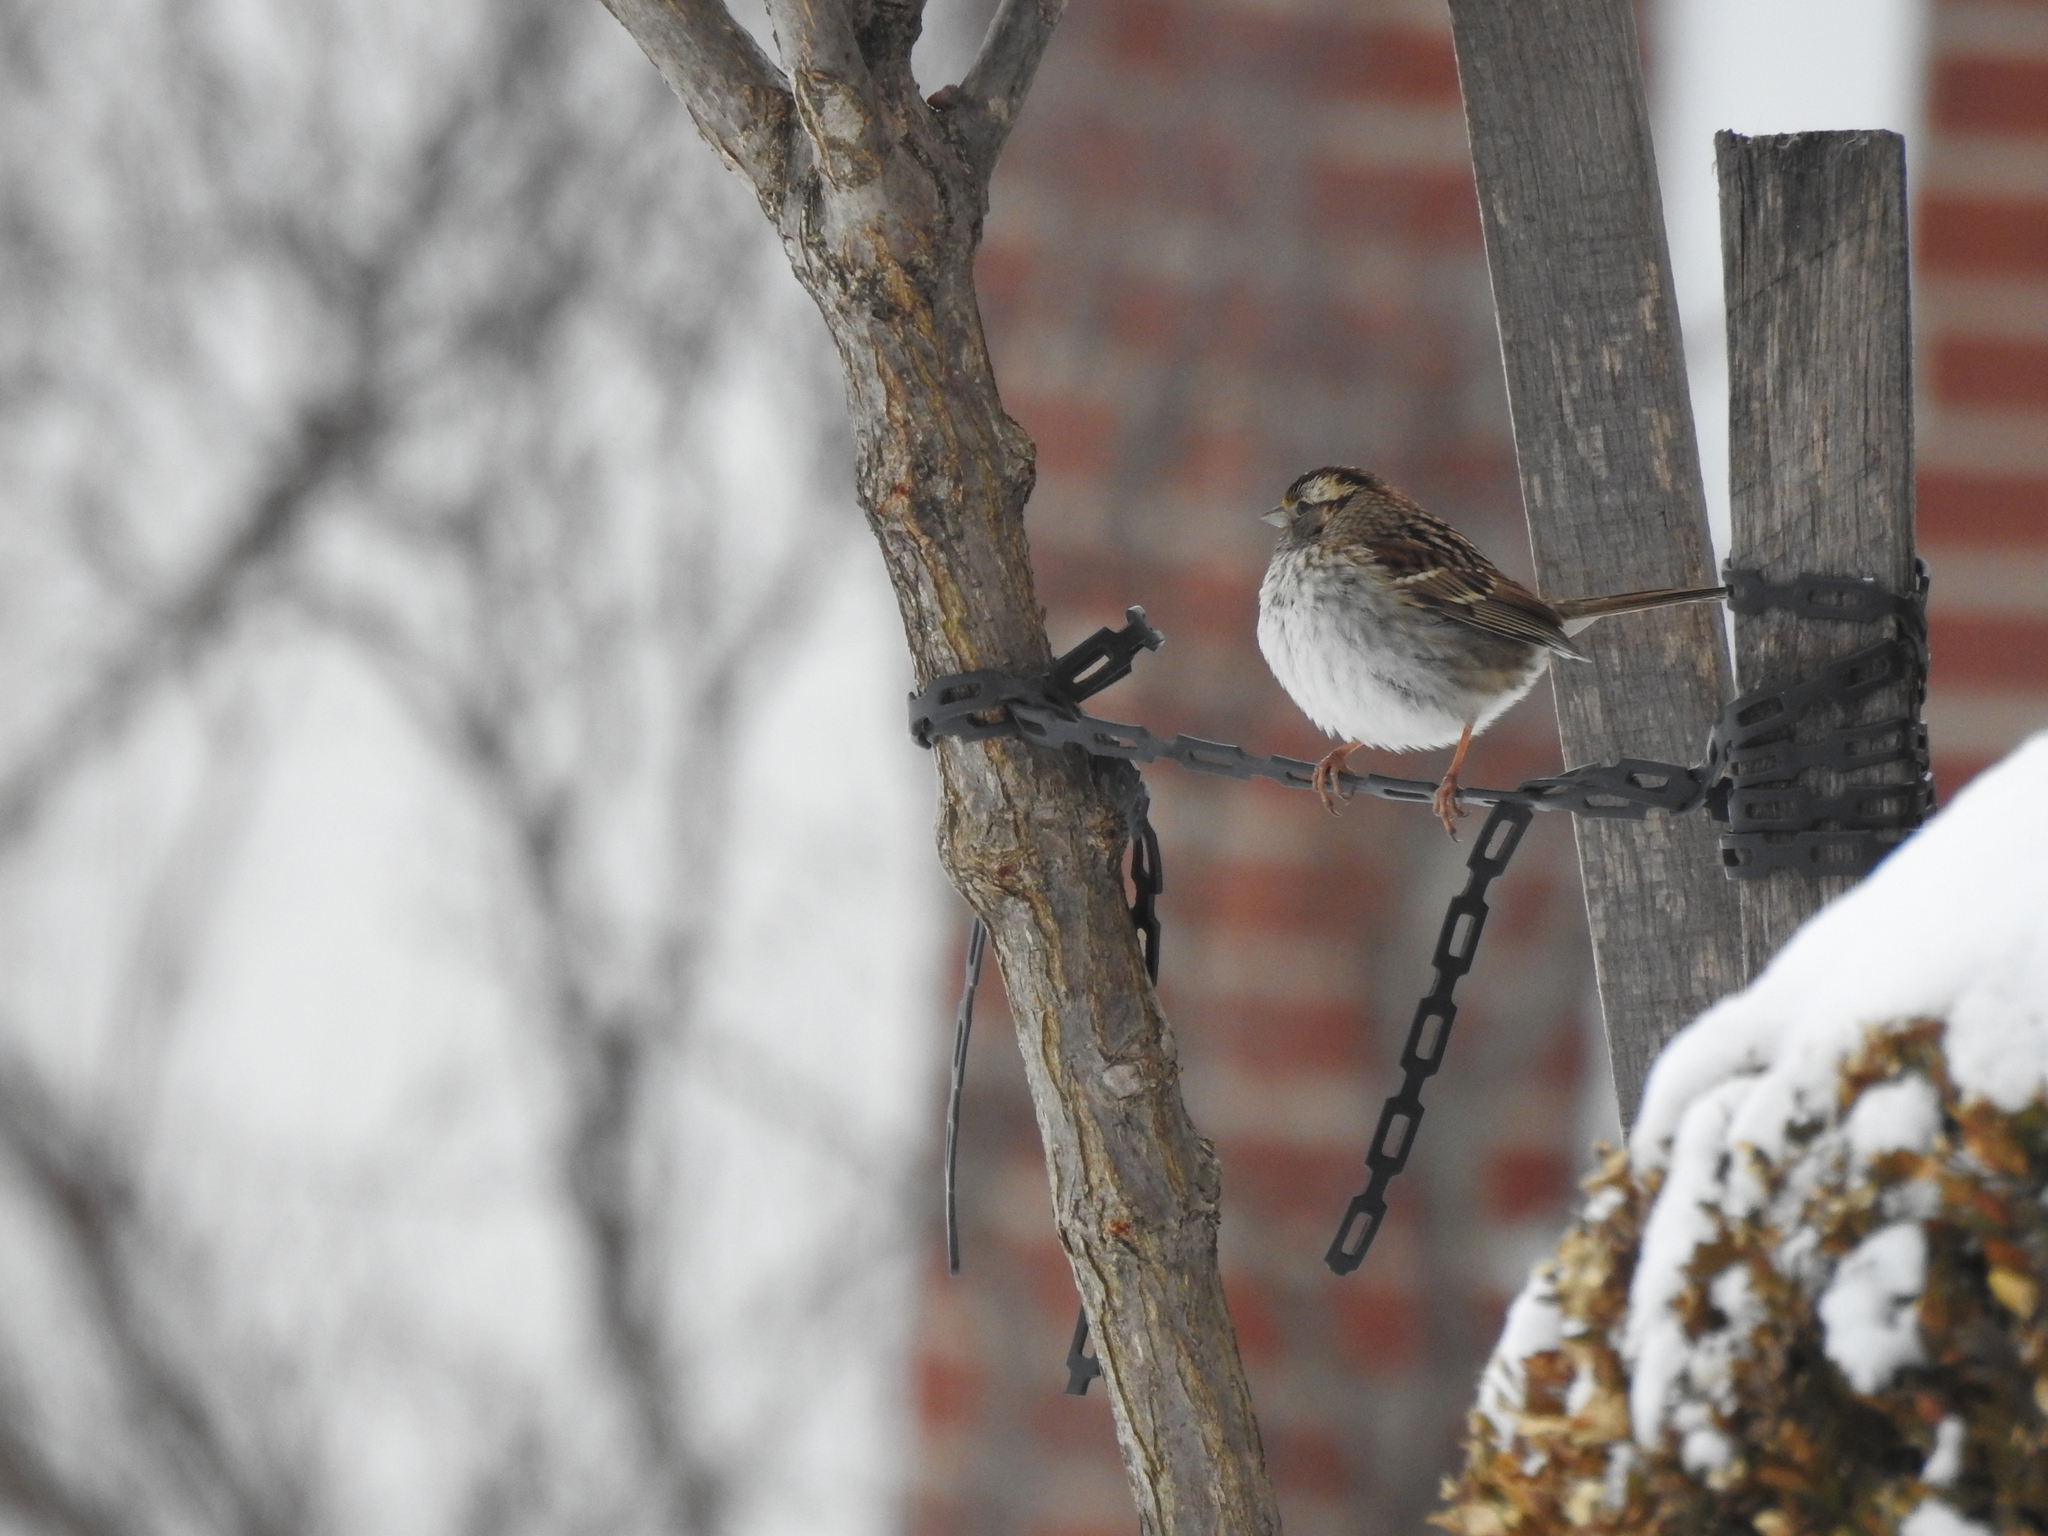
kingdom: Animalia
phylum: Chordata
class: Aves
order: Passeriformes
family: Passerellidae
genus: Zonotrichia
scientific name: Zonotrichia albicollis
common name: White-throated sparrow
